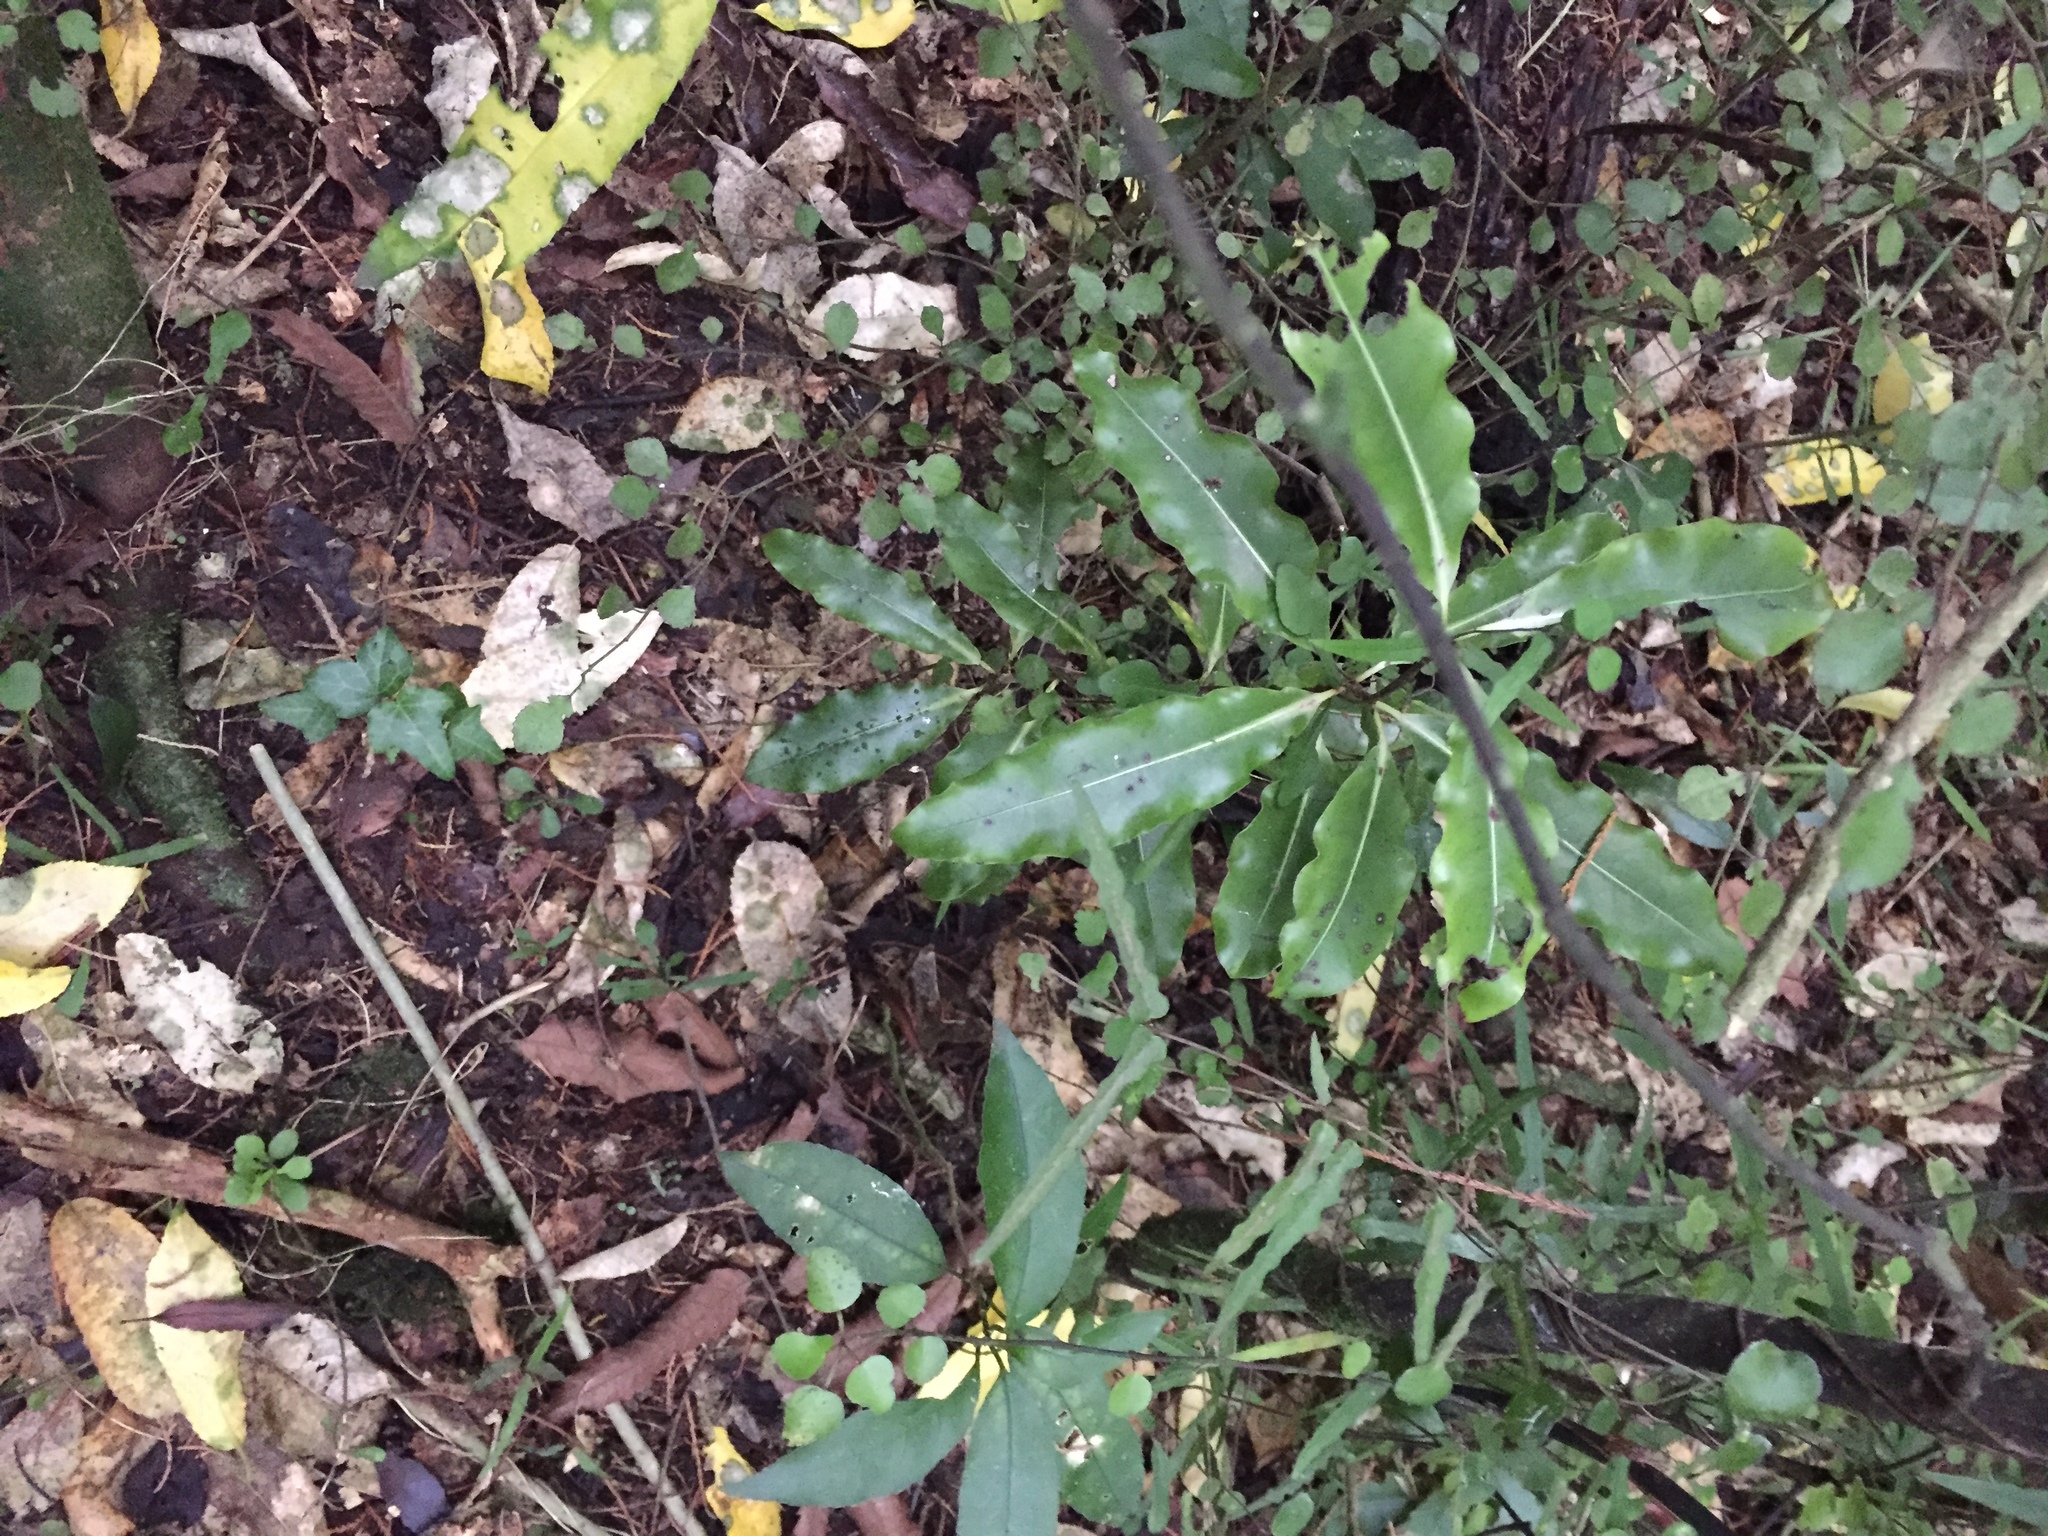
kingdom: Plantae
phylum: Tracheophyta
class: Magnoliopsida
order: Apiales
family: Pittosporaceae
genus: Pittosporum
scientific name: Pittosporum eugenioides
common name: Lemonwood
